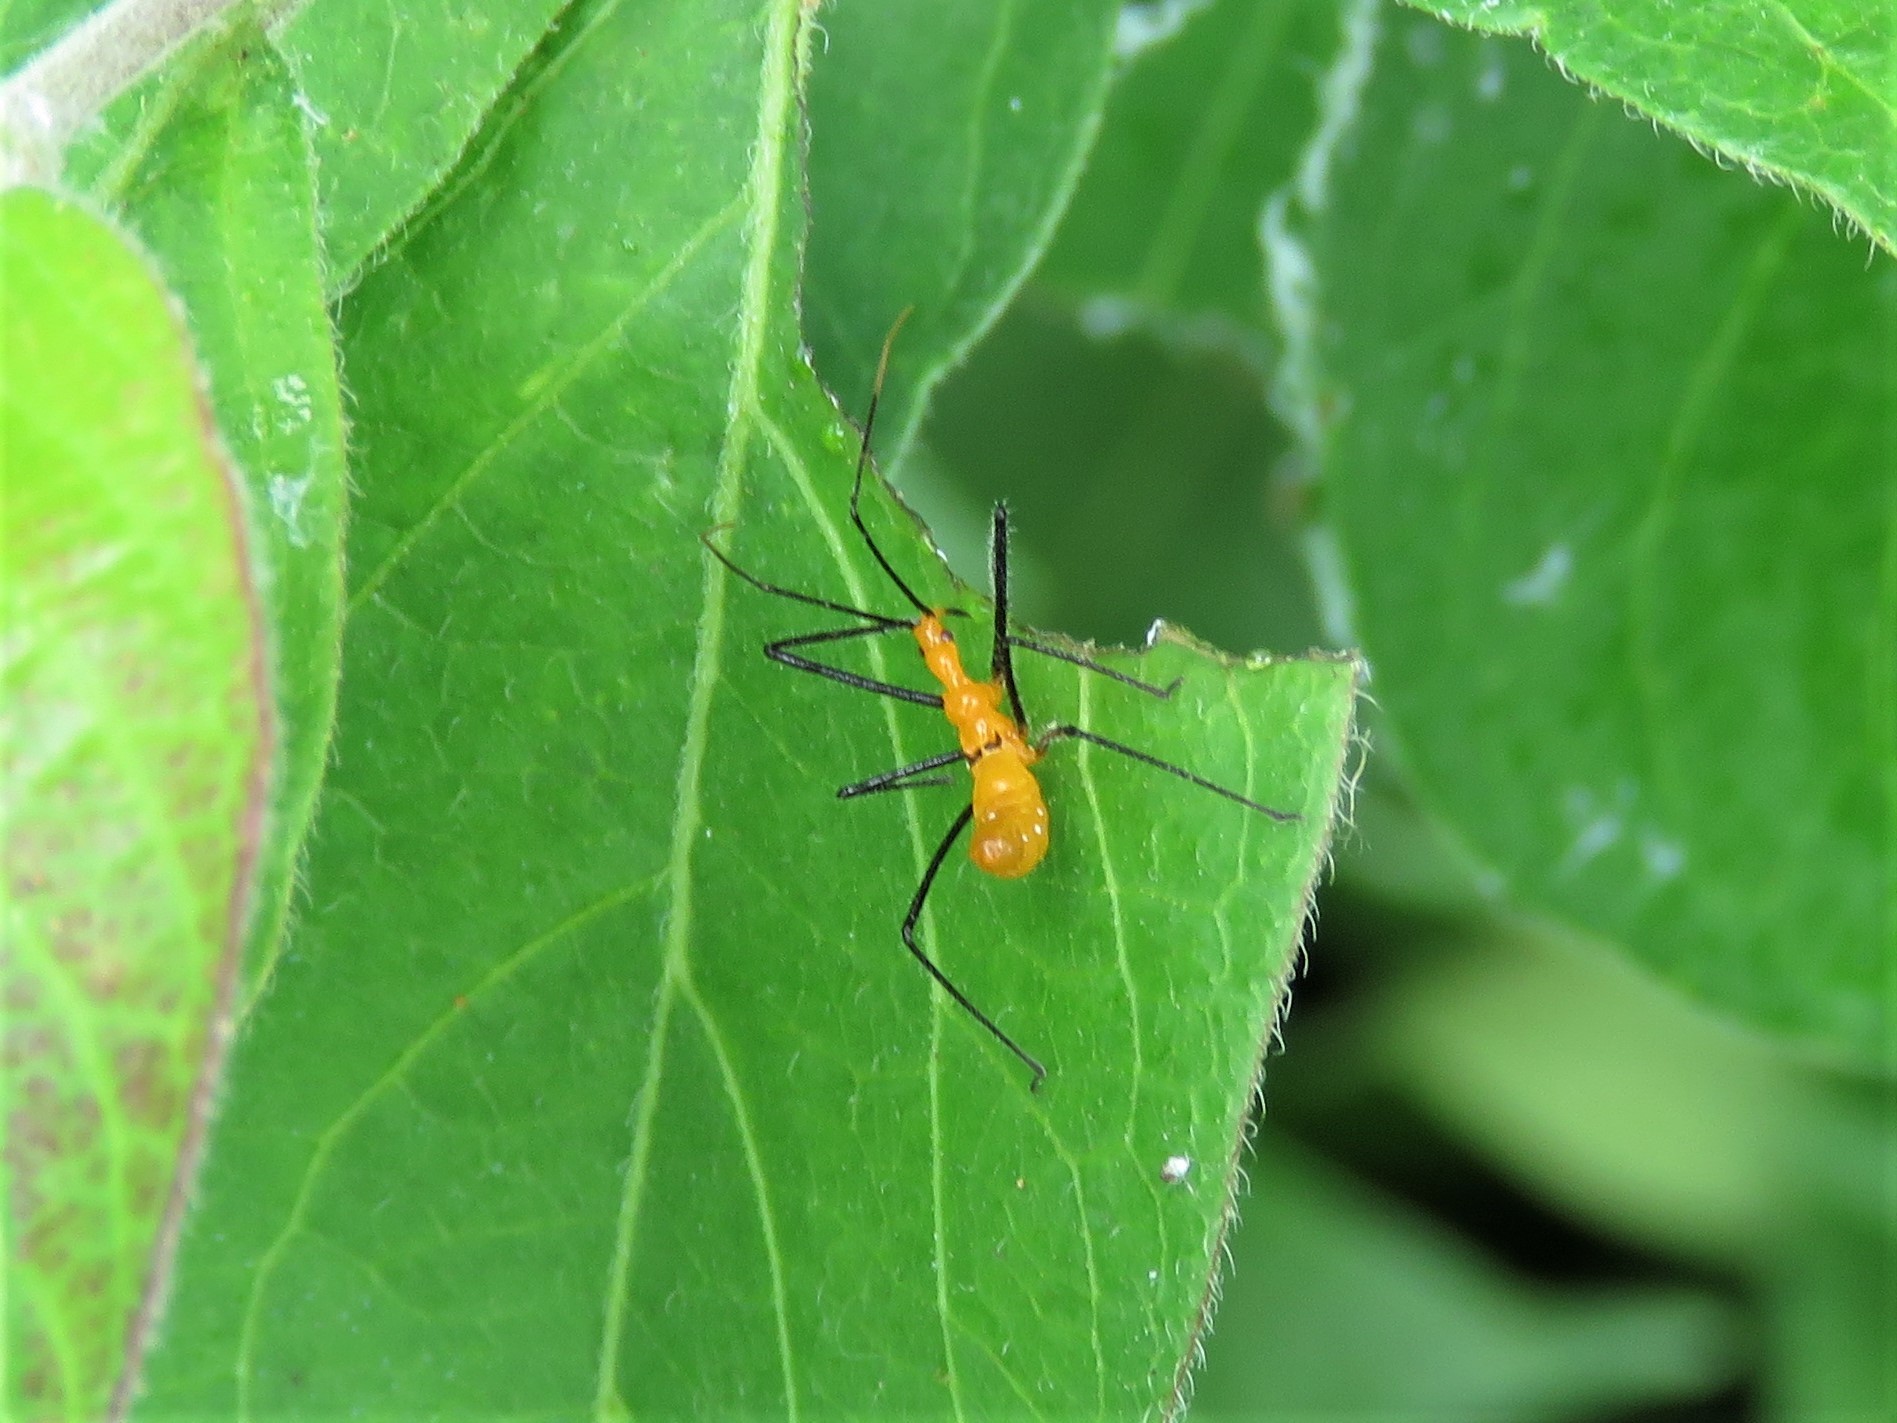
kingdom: Animalia
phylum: Arthropoda
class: Insecta
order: Hemiptera
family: Reduviidae
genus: Zelus
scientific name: Zelus longipes
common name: Milkweed assassin bug
